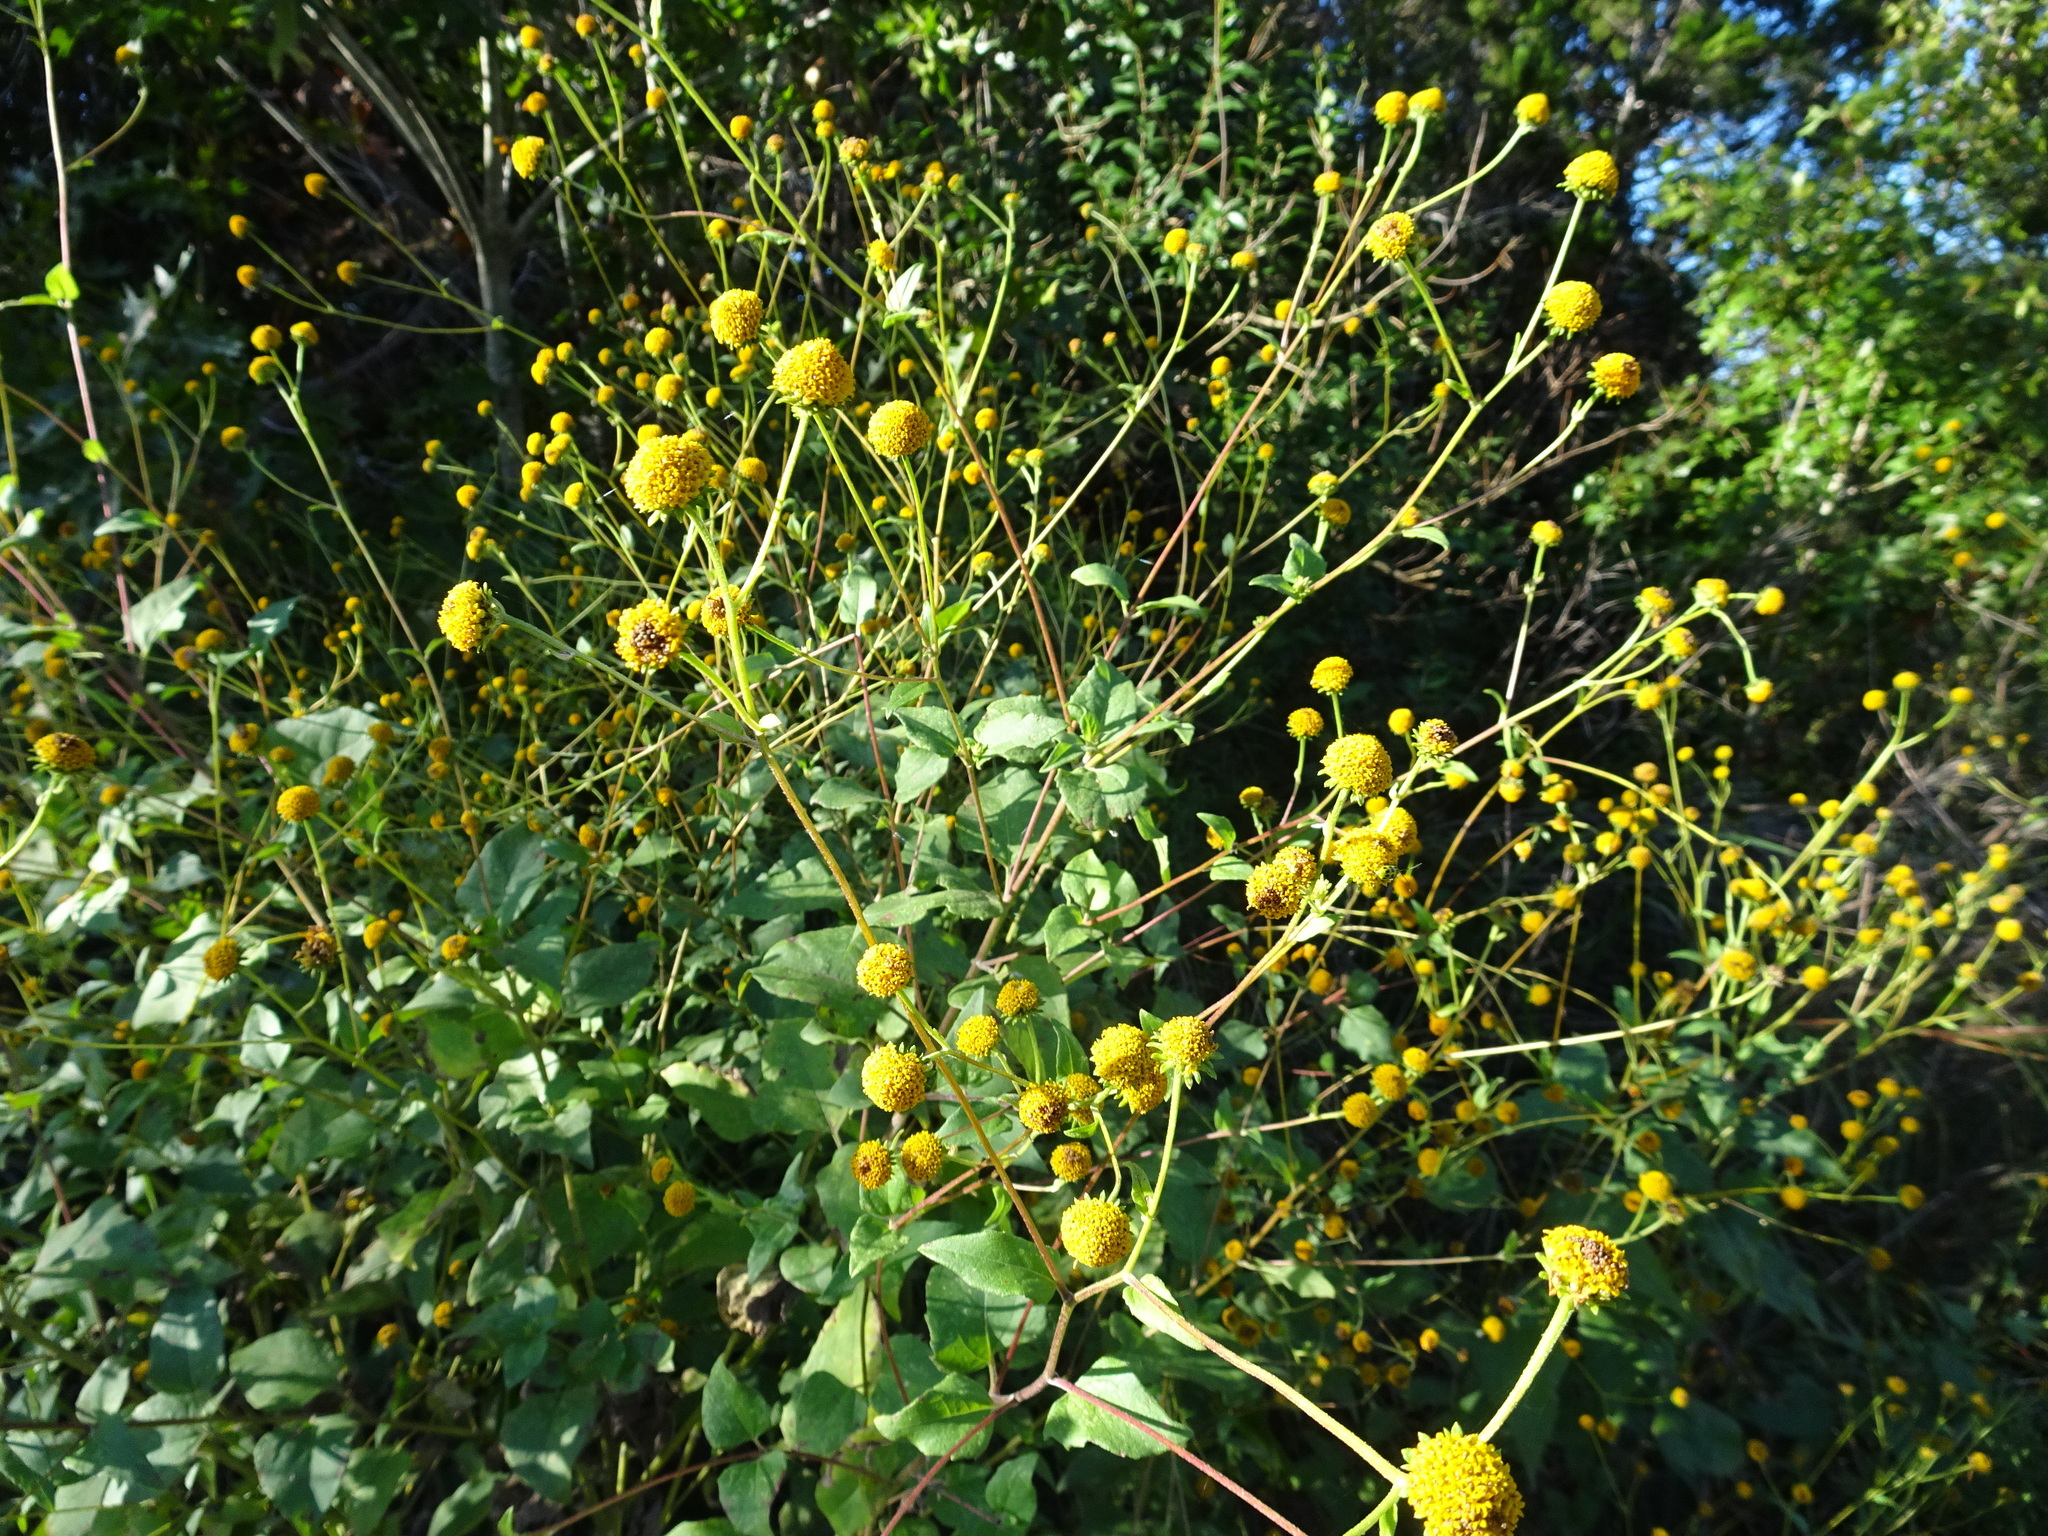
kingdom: Plantae
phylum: Tracheophyta
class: Magnoliopsida
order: Asterales
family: Asteraceae
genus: Viguiera
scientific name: Viguiera dentata
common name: Toothleaf
